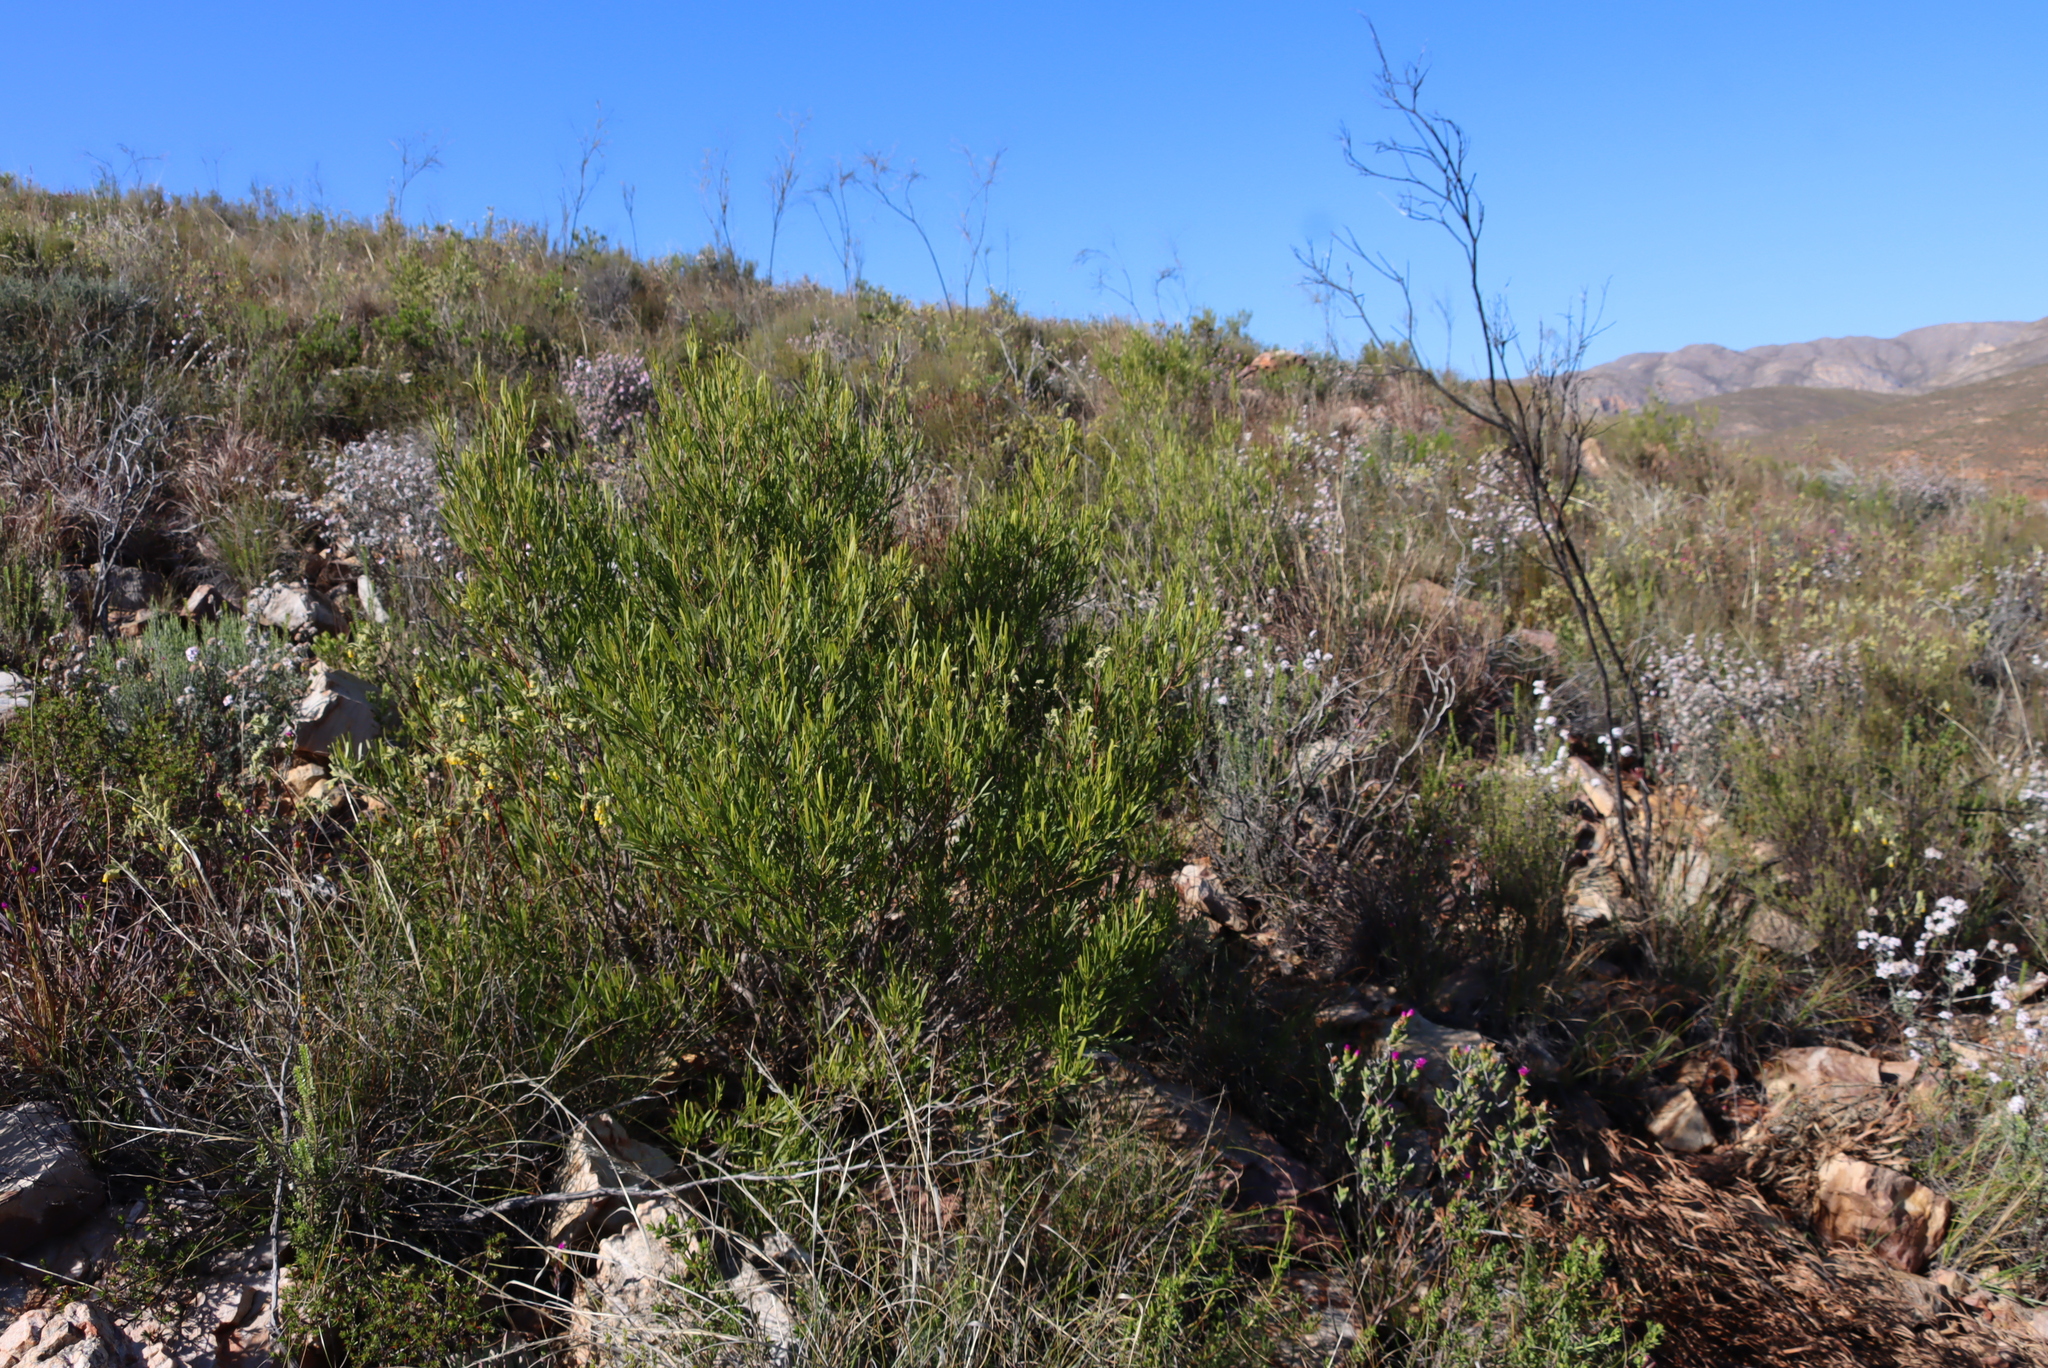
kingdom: Plantae
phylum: Tracheophyta
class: Magnoliopsida
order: Sapindales
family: Sapindaceae
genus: Dodonaea
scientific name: Dodonaea viscosa
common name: Hopbush
